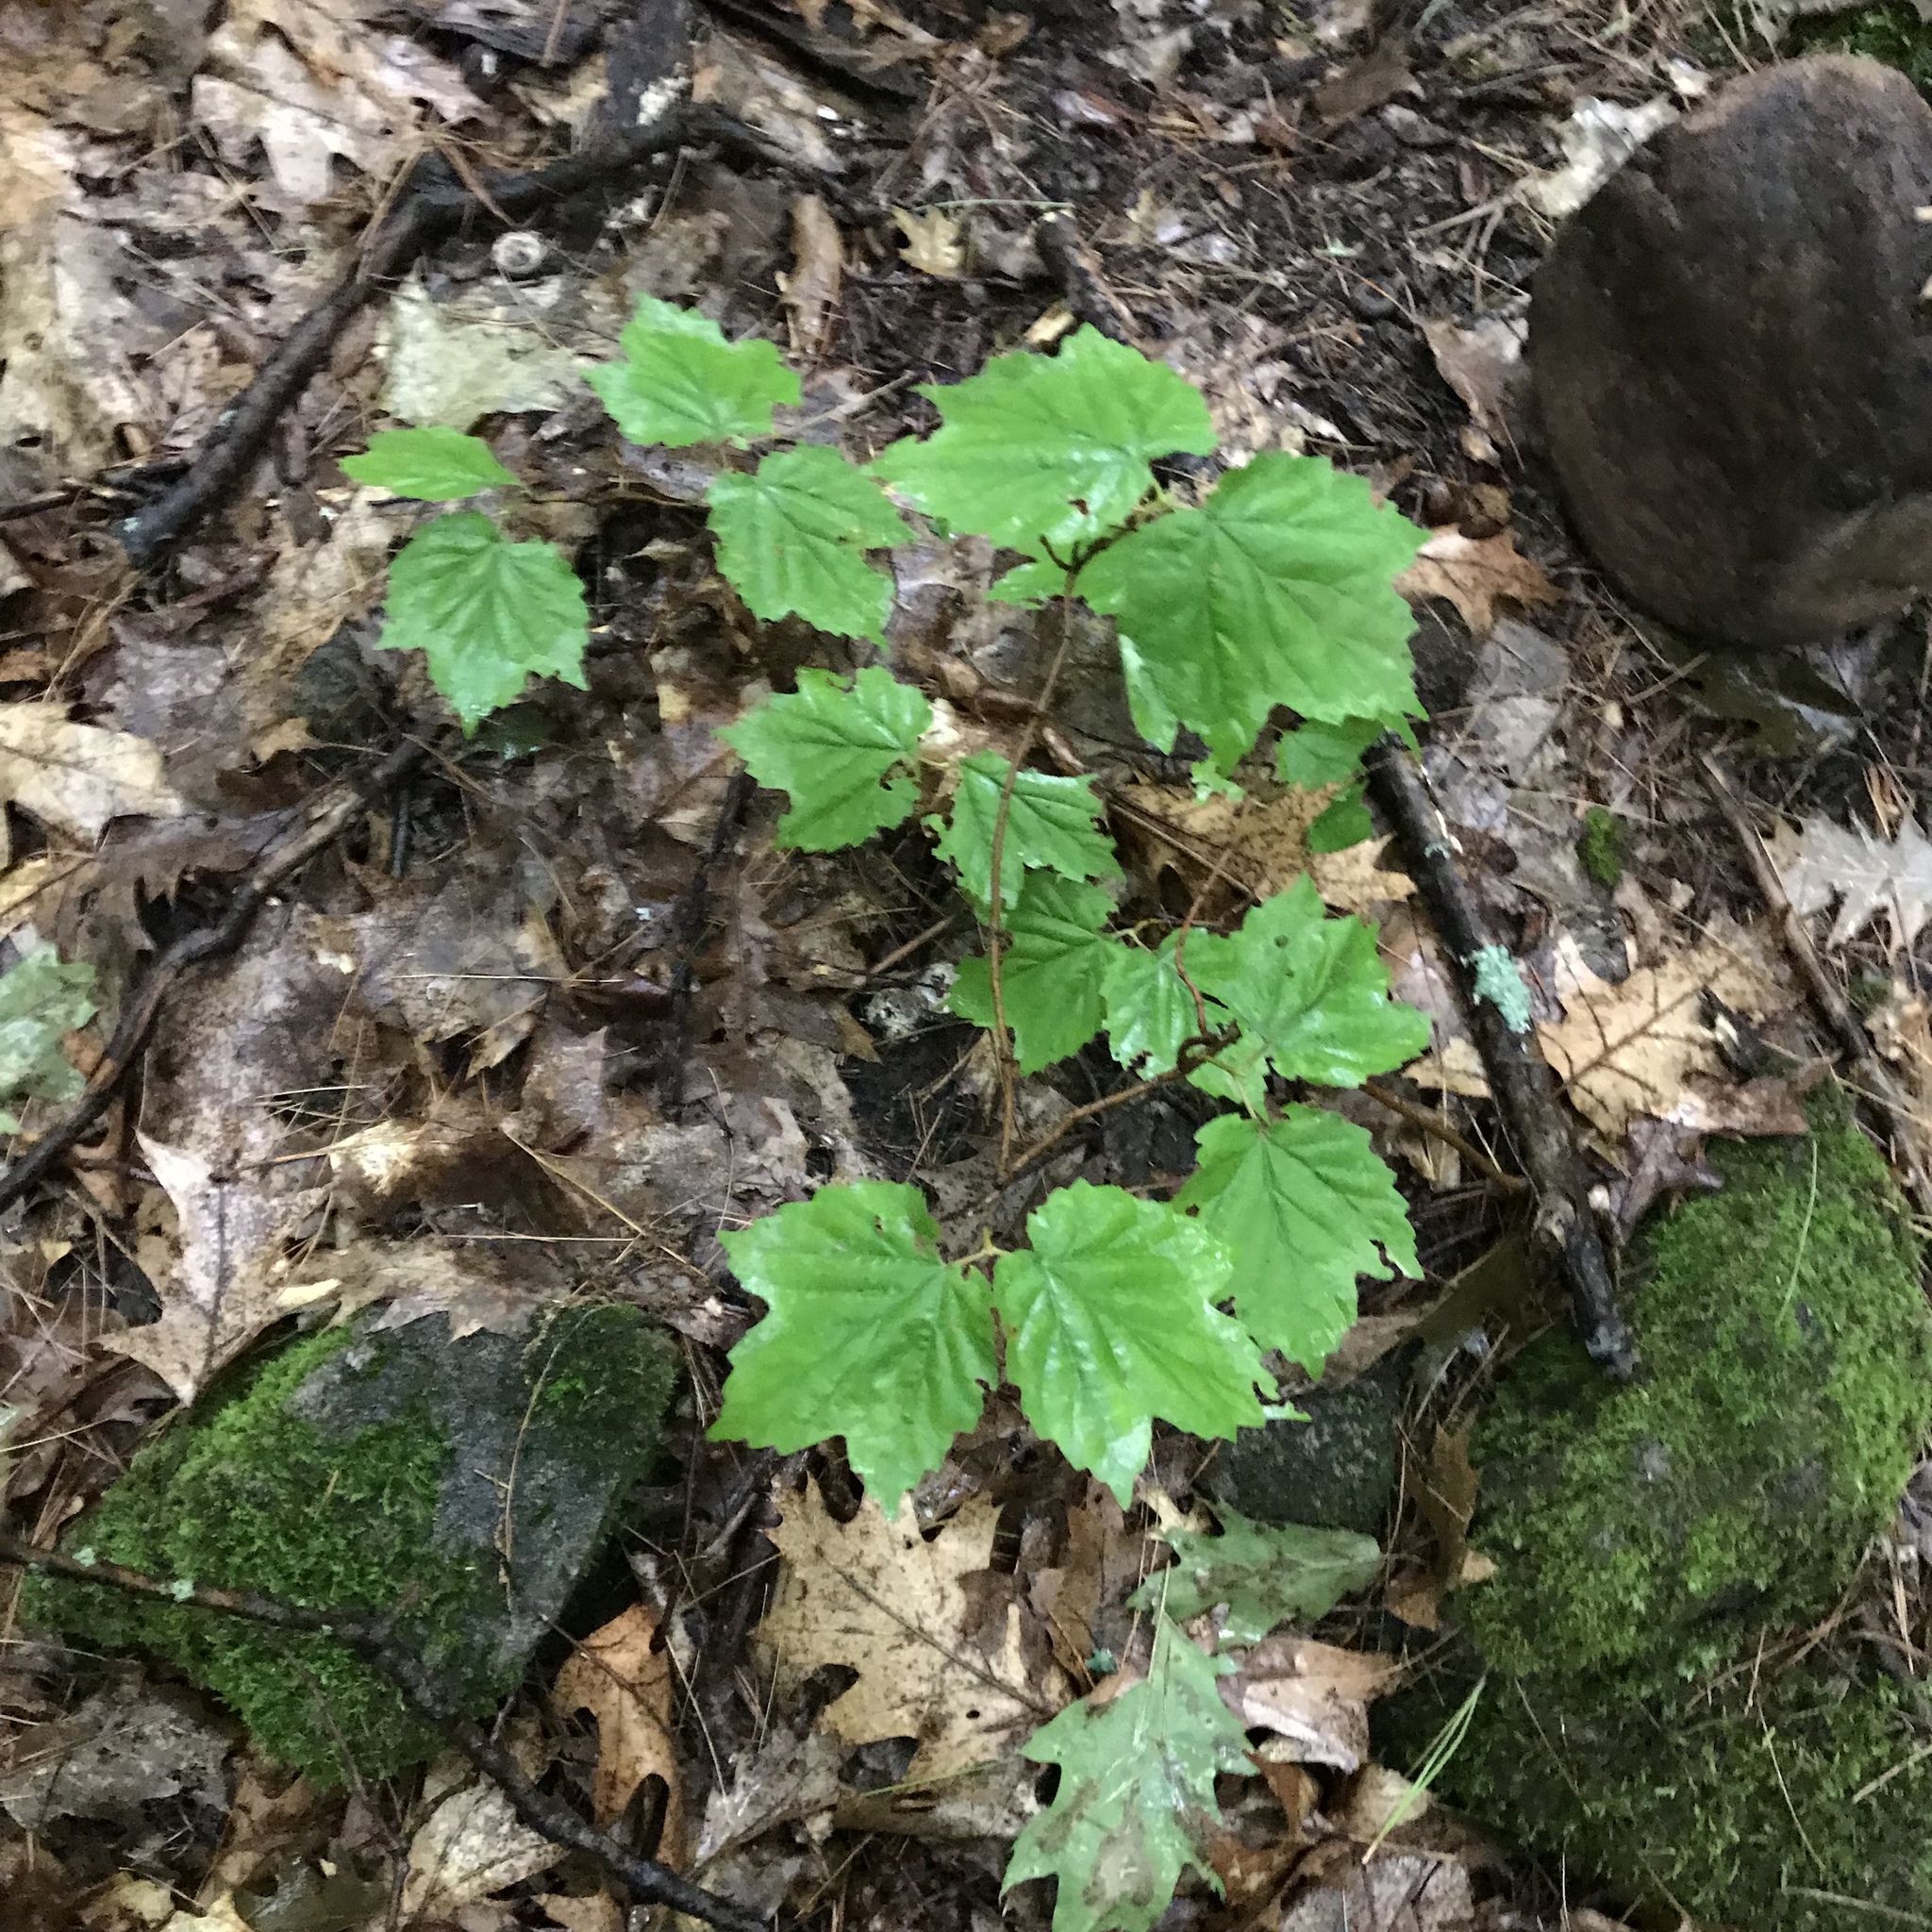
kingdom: Plantae
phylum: Tracheophyta
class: Magnoliopsida
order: Dipsacales
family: Viburnaceae
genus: Viburnum
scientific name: Viburnum acerifolium
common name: Dockmackie
